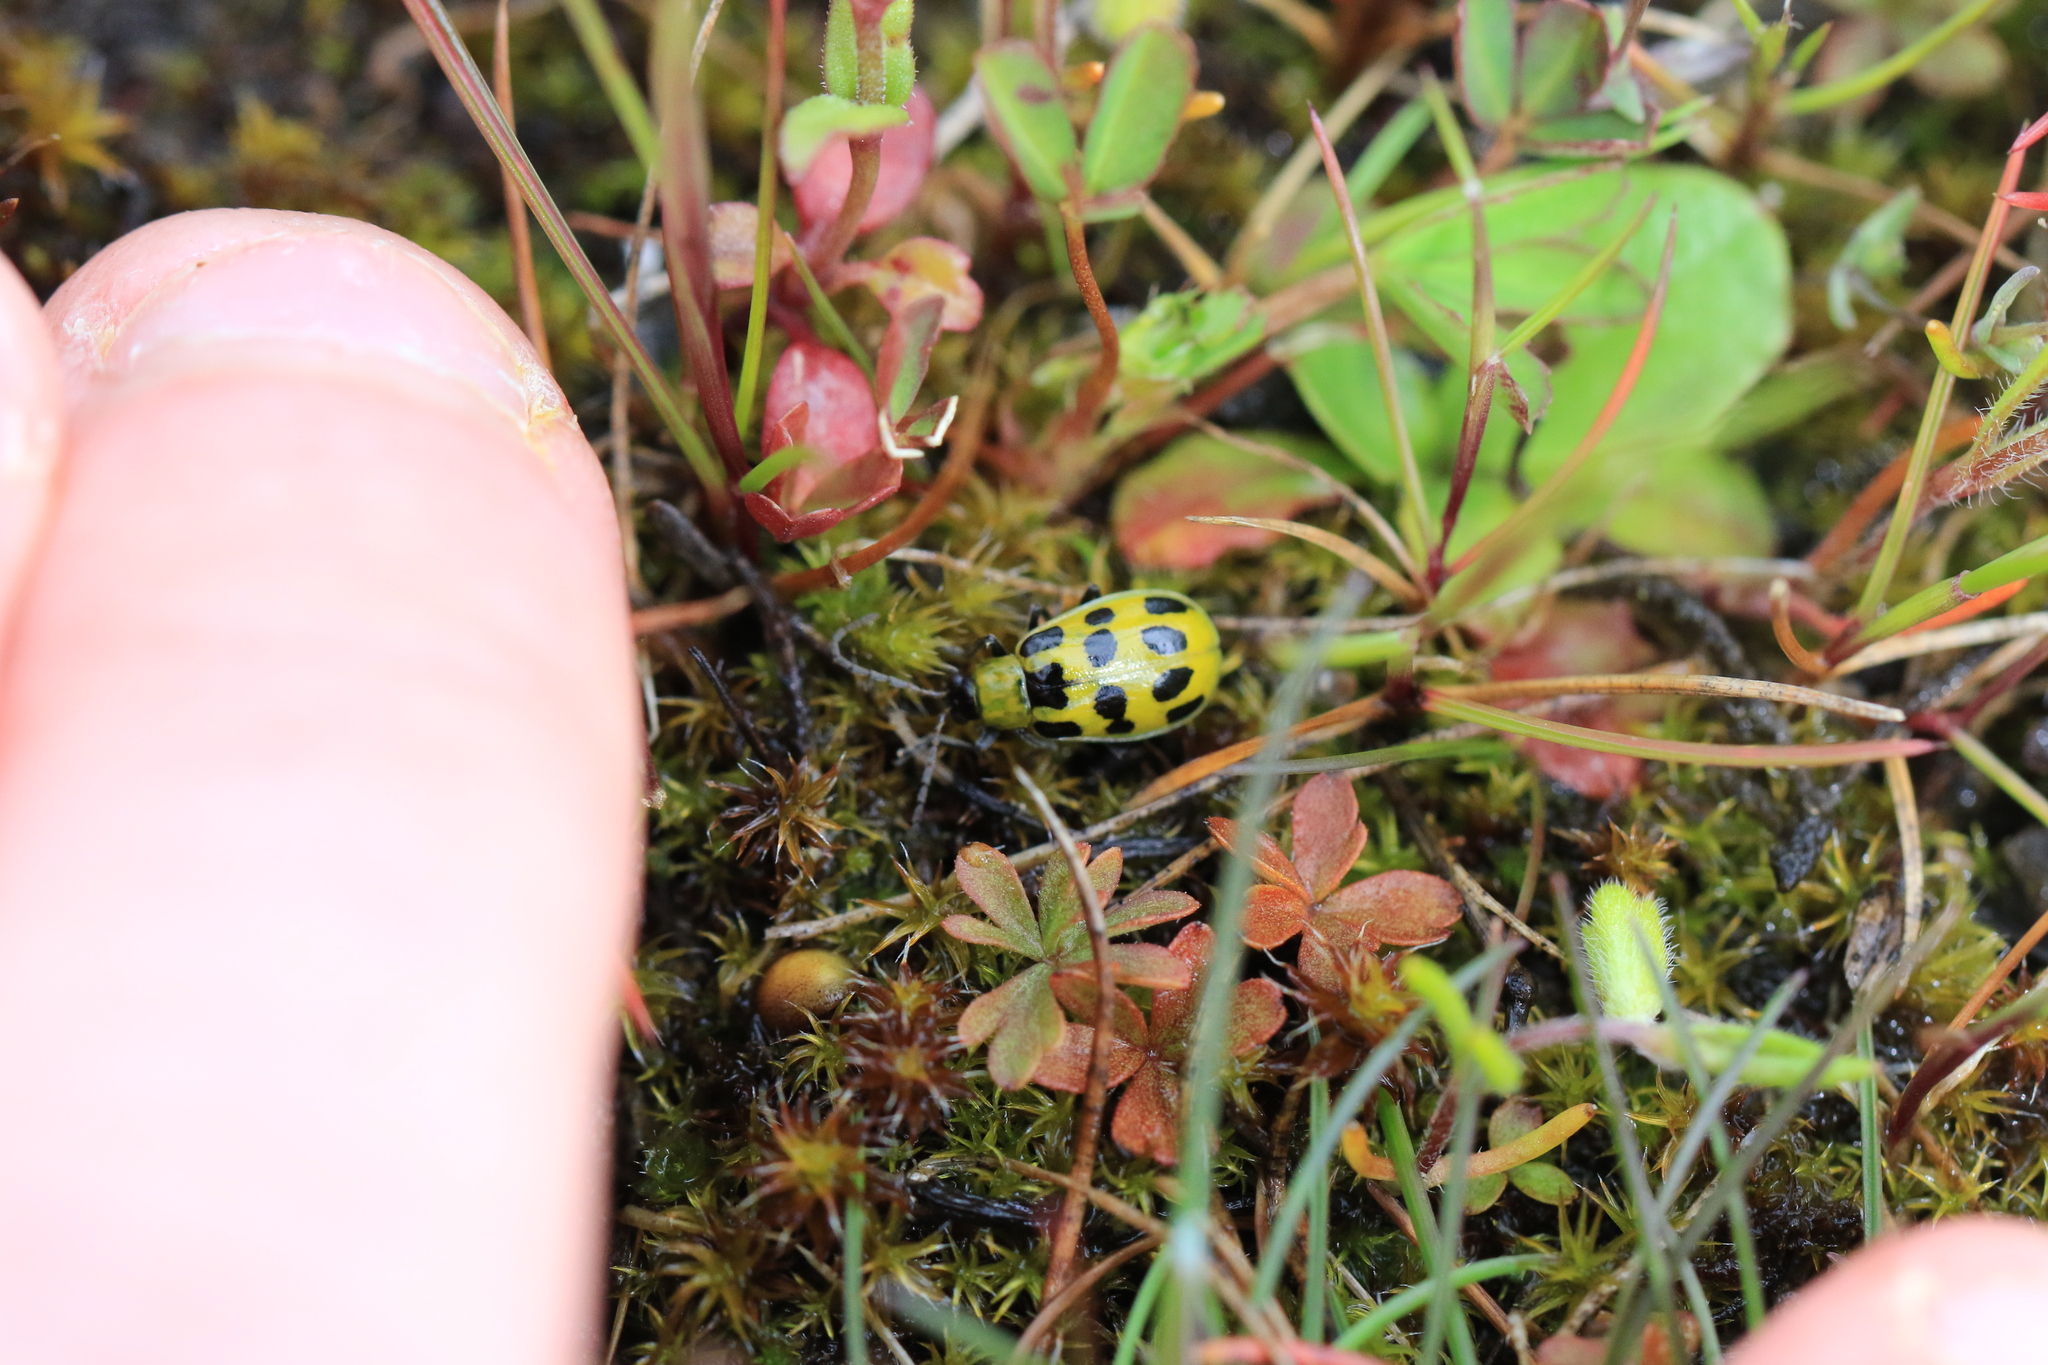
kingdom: Animalia
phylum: Arthropoda
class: Insecta
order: Coleoptera
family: Chrysomelidae
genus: Diabrotica
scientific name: Diabrotica undecimpunctata
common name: Spotted cucumber beetle
